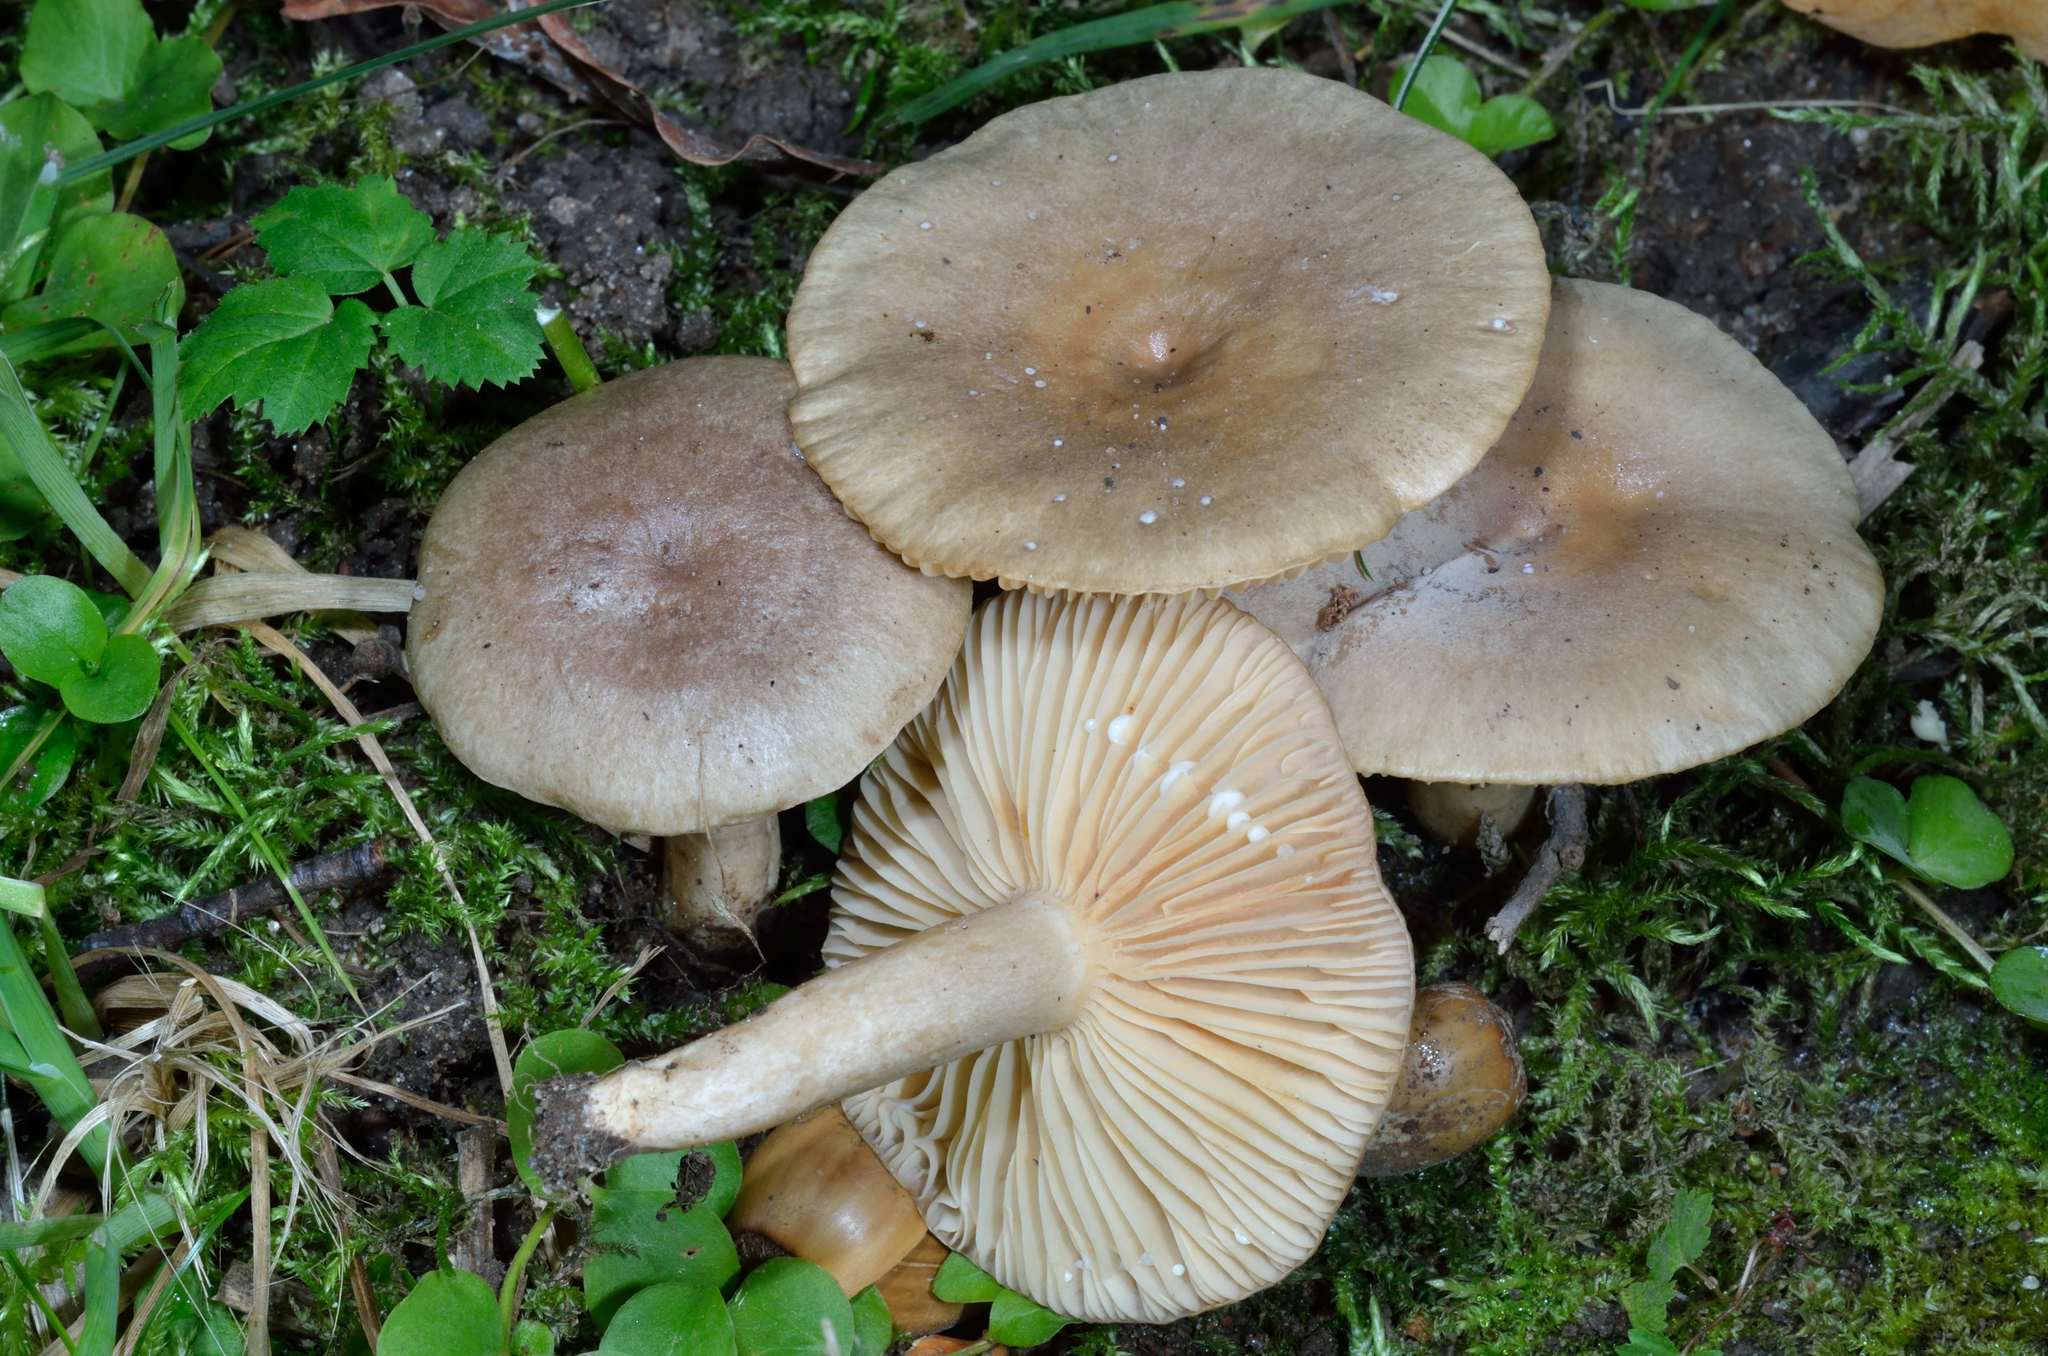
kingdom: Fungi
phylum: Basidiomycota
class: Agaricomycetes
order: Russulales
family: Russulaceae
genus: Lactarius
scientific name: Lactarius pyrogalus
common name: Fiery milkcap
